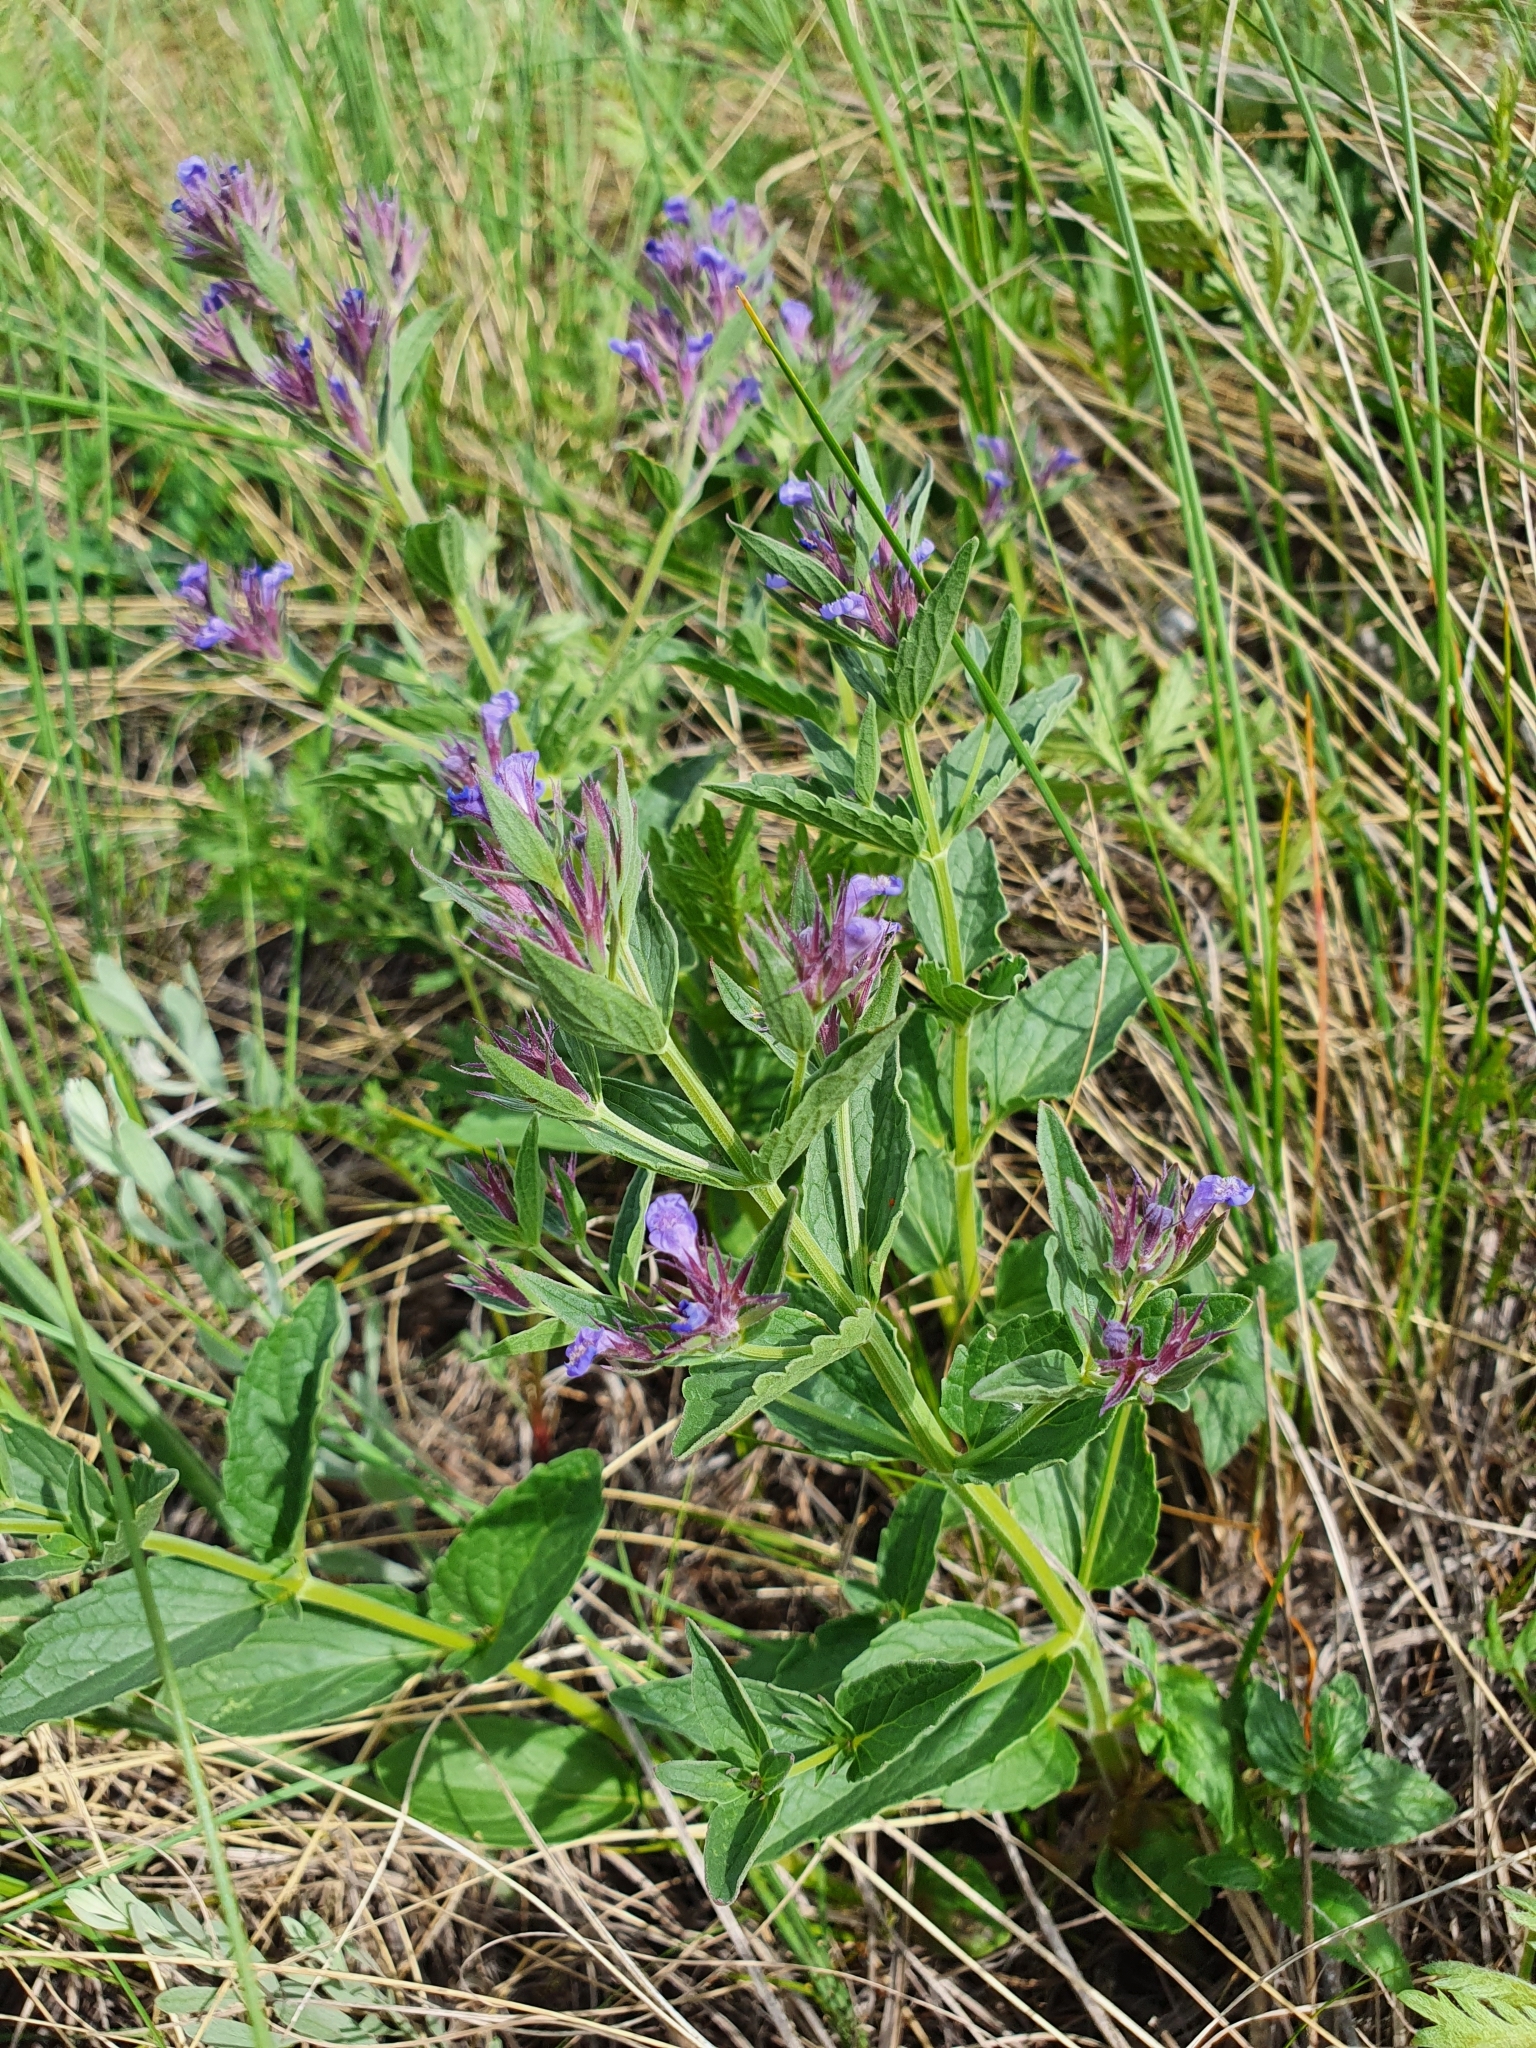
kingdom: Plantae
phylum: Tracheophyta
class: Magnoliopsida
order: Lamiales
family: Lamiaceae
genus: Nepeta
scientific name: Nepeta ucranica
